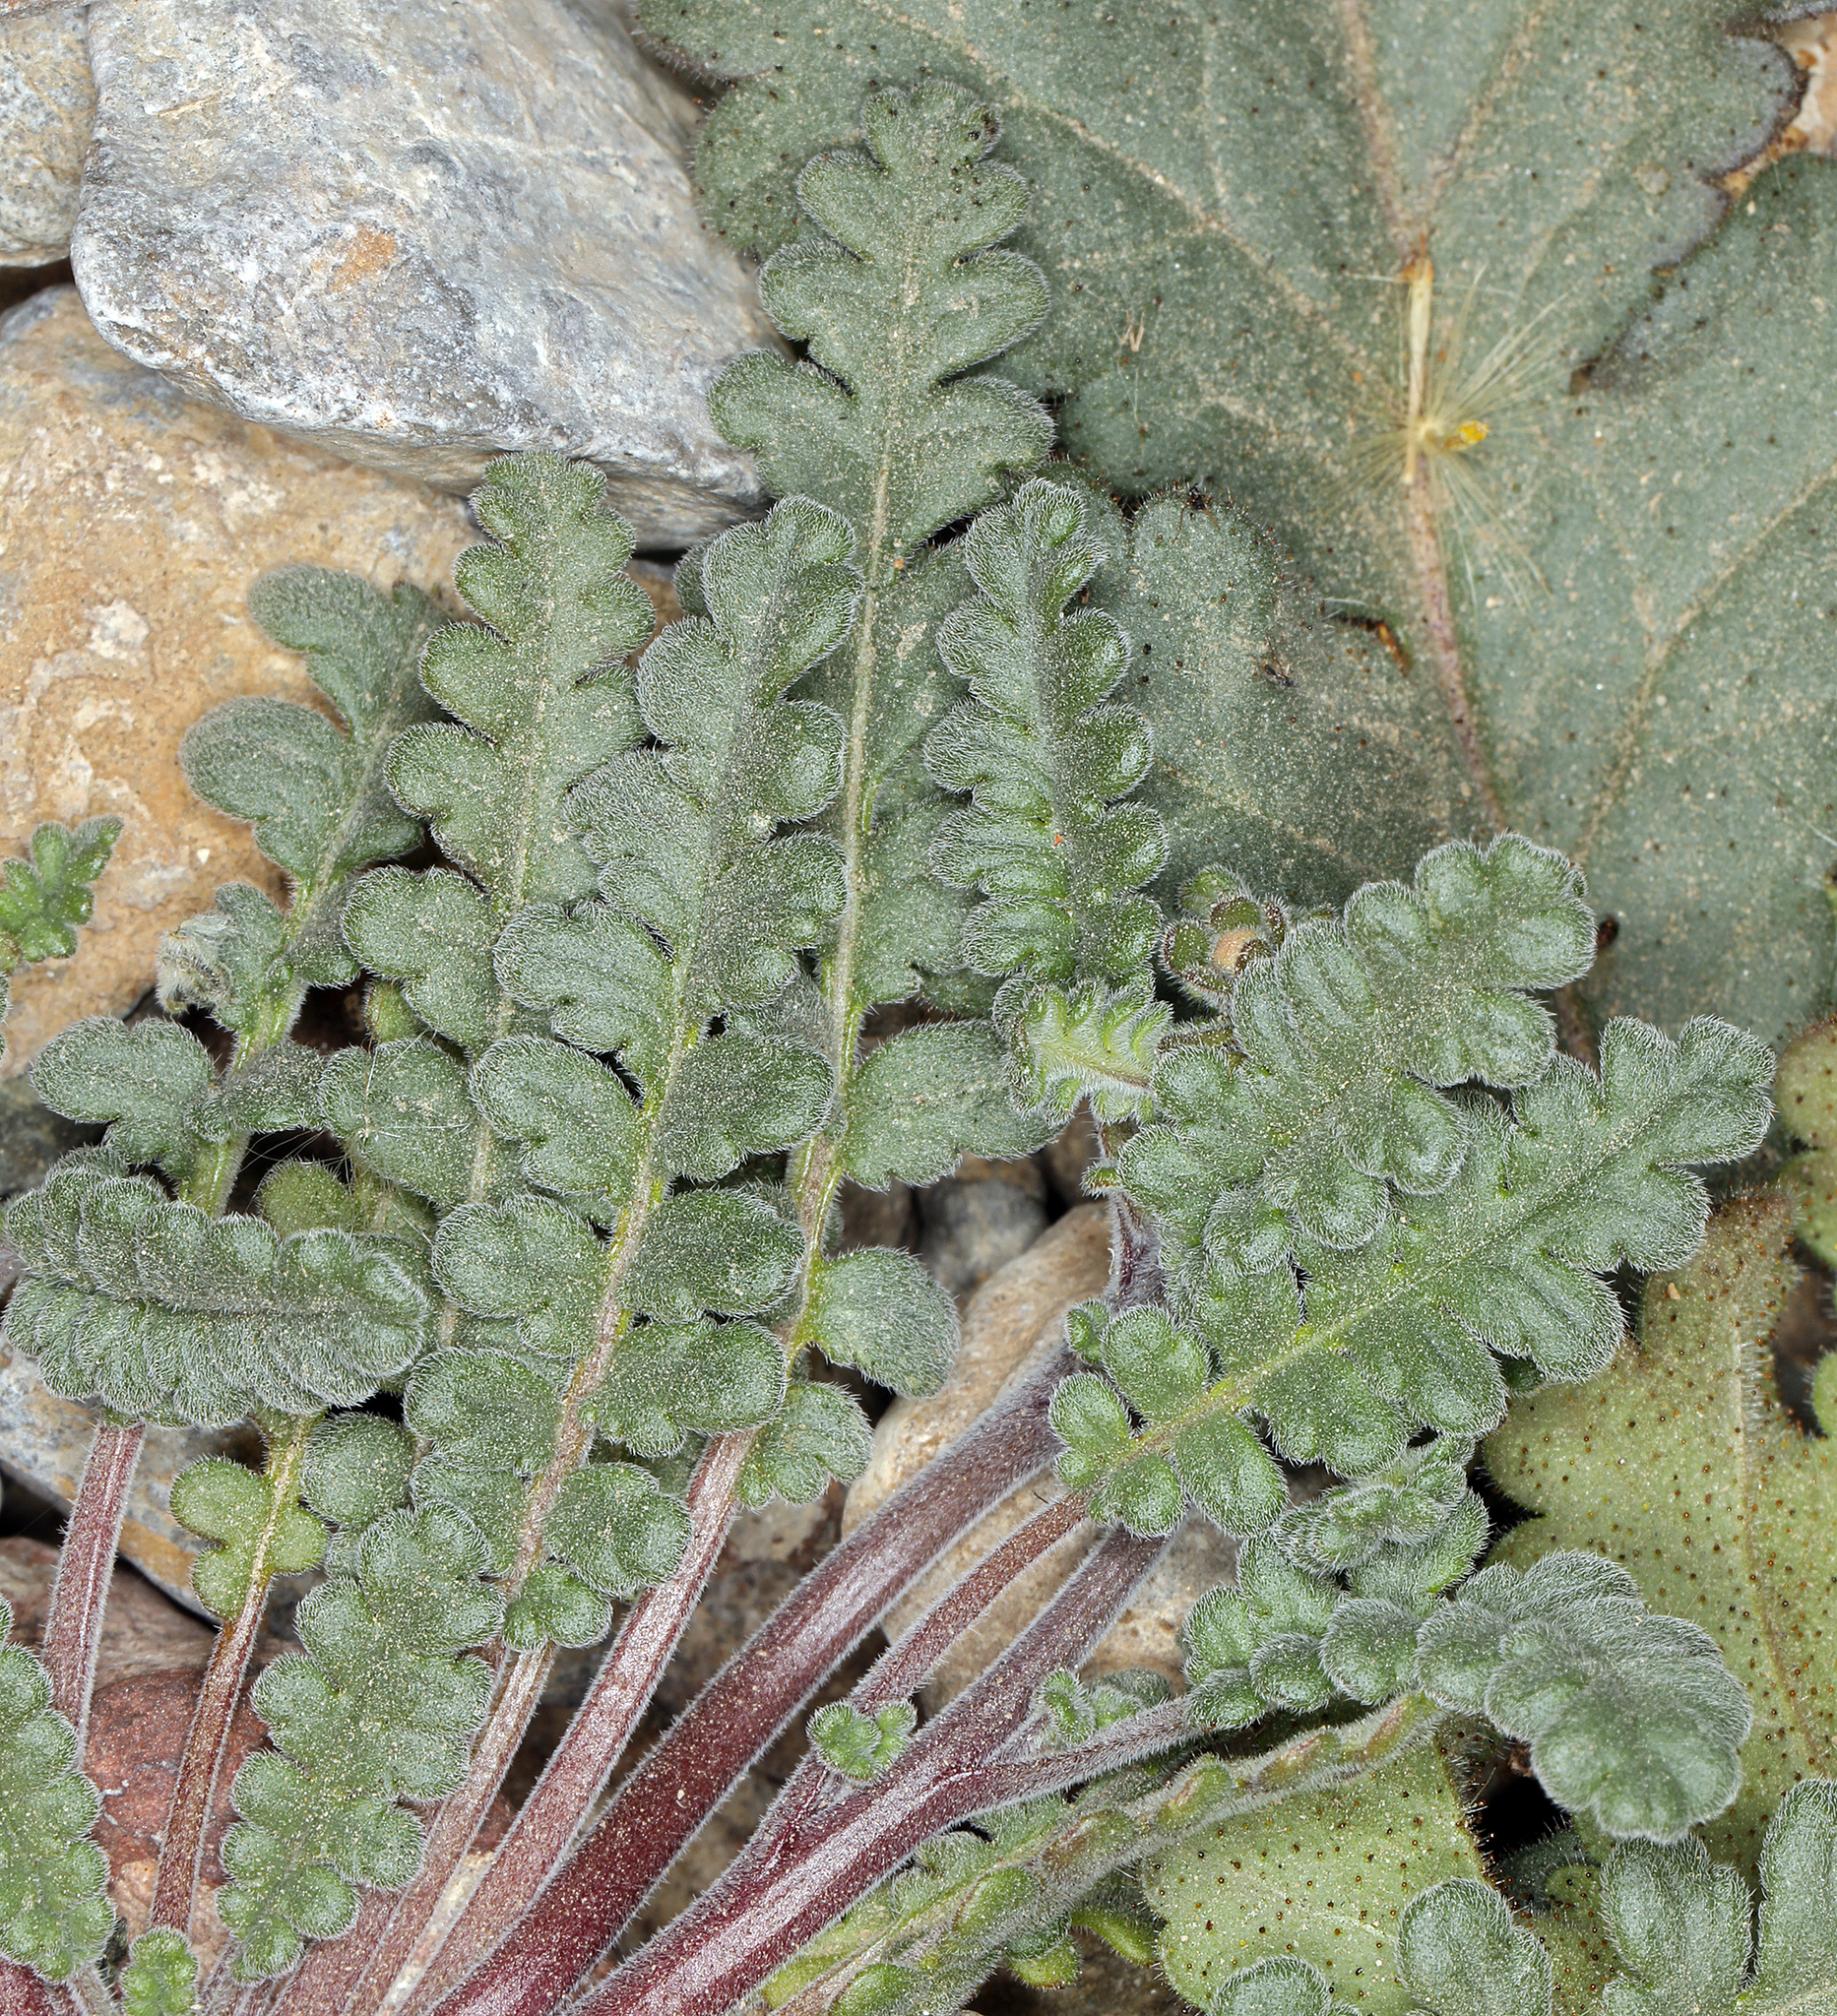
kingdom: Plantae
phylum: Tracheophyta
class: Magnoliopsida
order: Boraginales
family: Hydrophyllaceae
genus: Phacelia
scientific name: Phacelia fremontii
